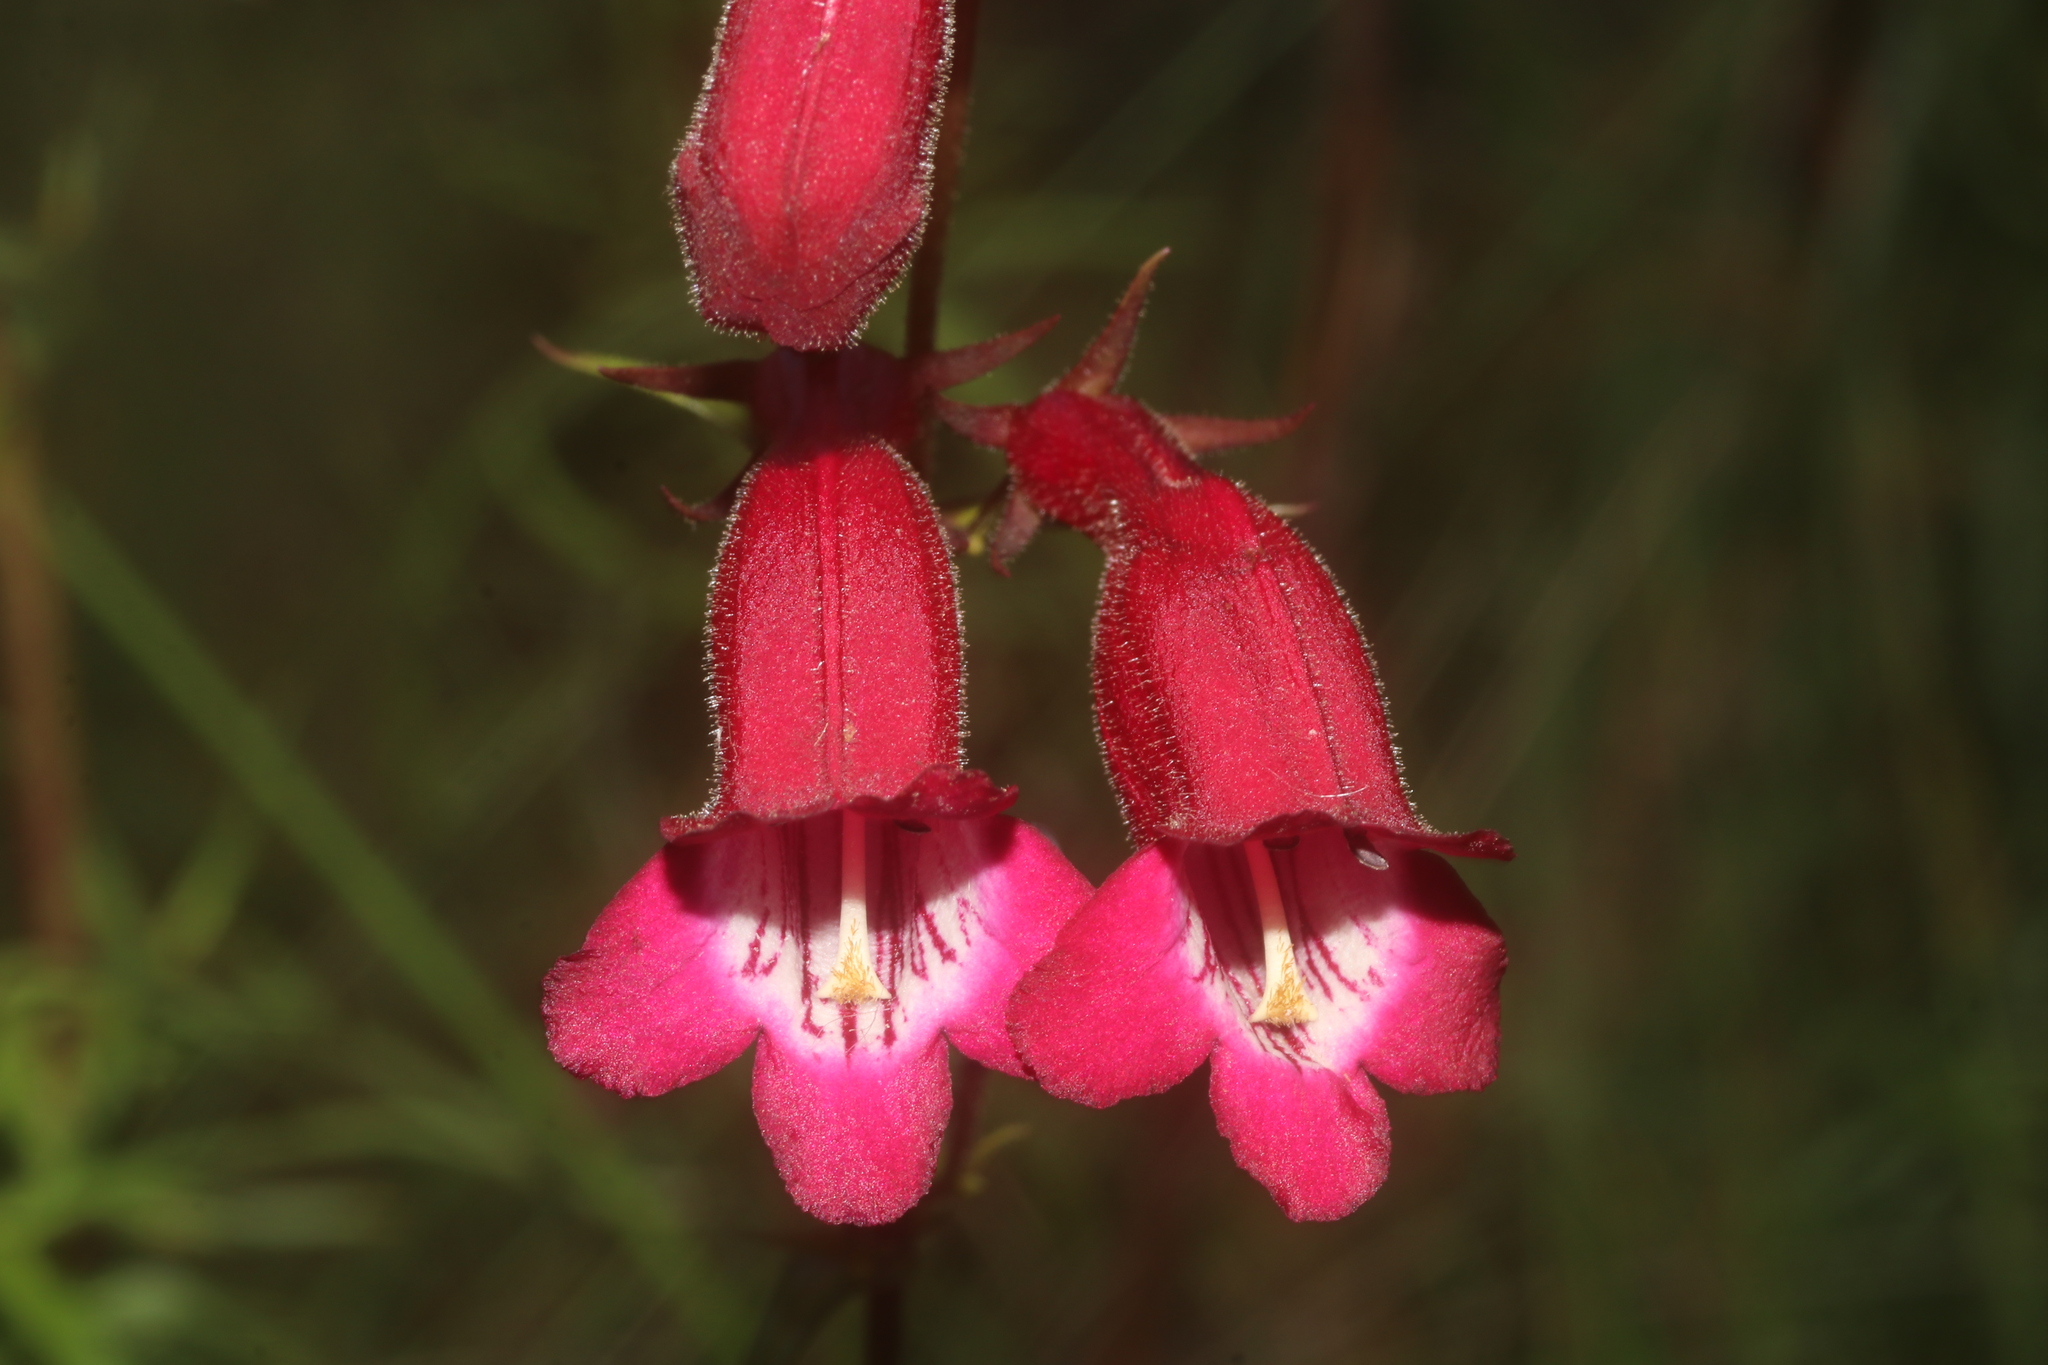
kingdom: Plantae
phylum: Tracheophyta
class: Magnoliopsida
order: Lamiales
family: Plantaginaceae
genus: Penstemon
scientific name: Penstemon roseus
